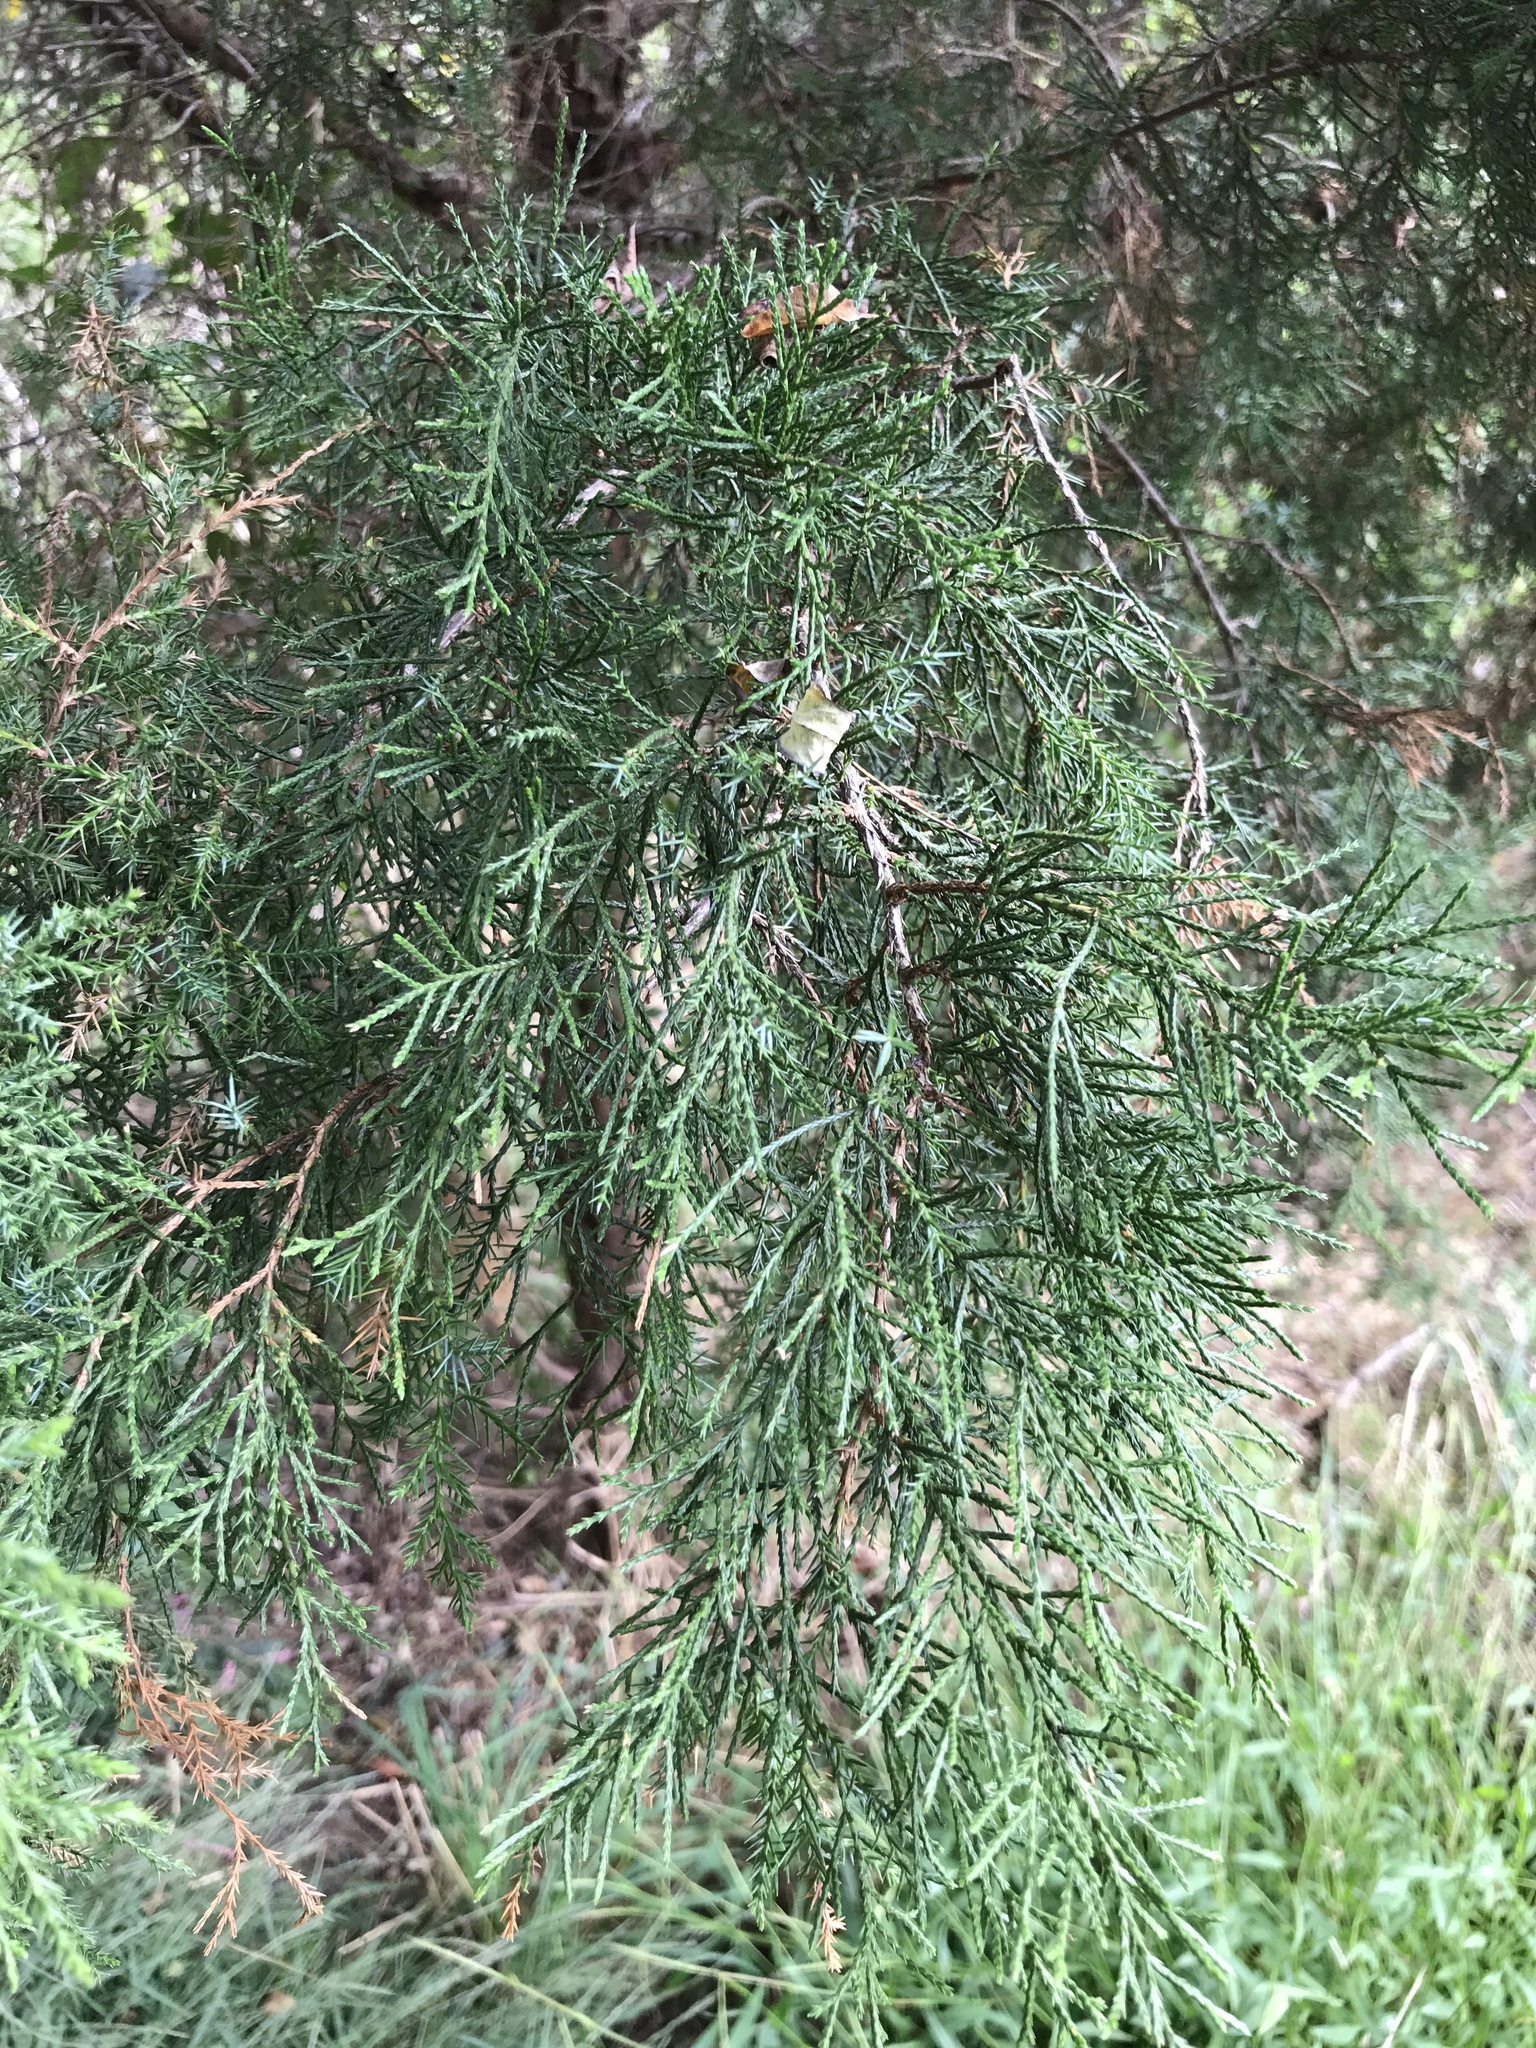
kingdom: Plantae
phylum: Tracheophyta
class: Pinopsida
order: Pinales
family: Cupressaceae
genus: Juniperus
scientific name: Juniperus virginiana
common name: Red juniper
